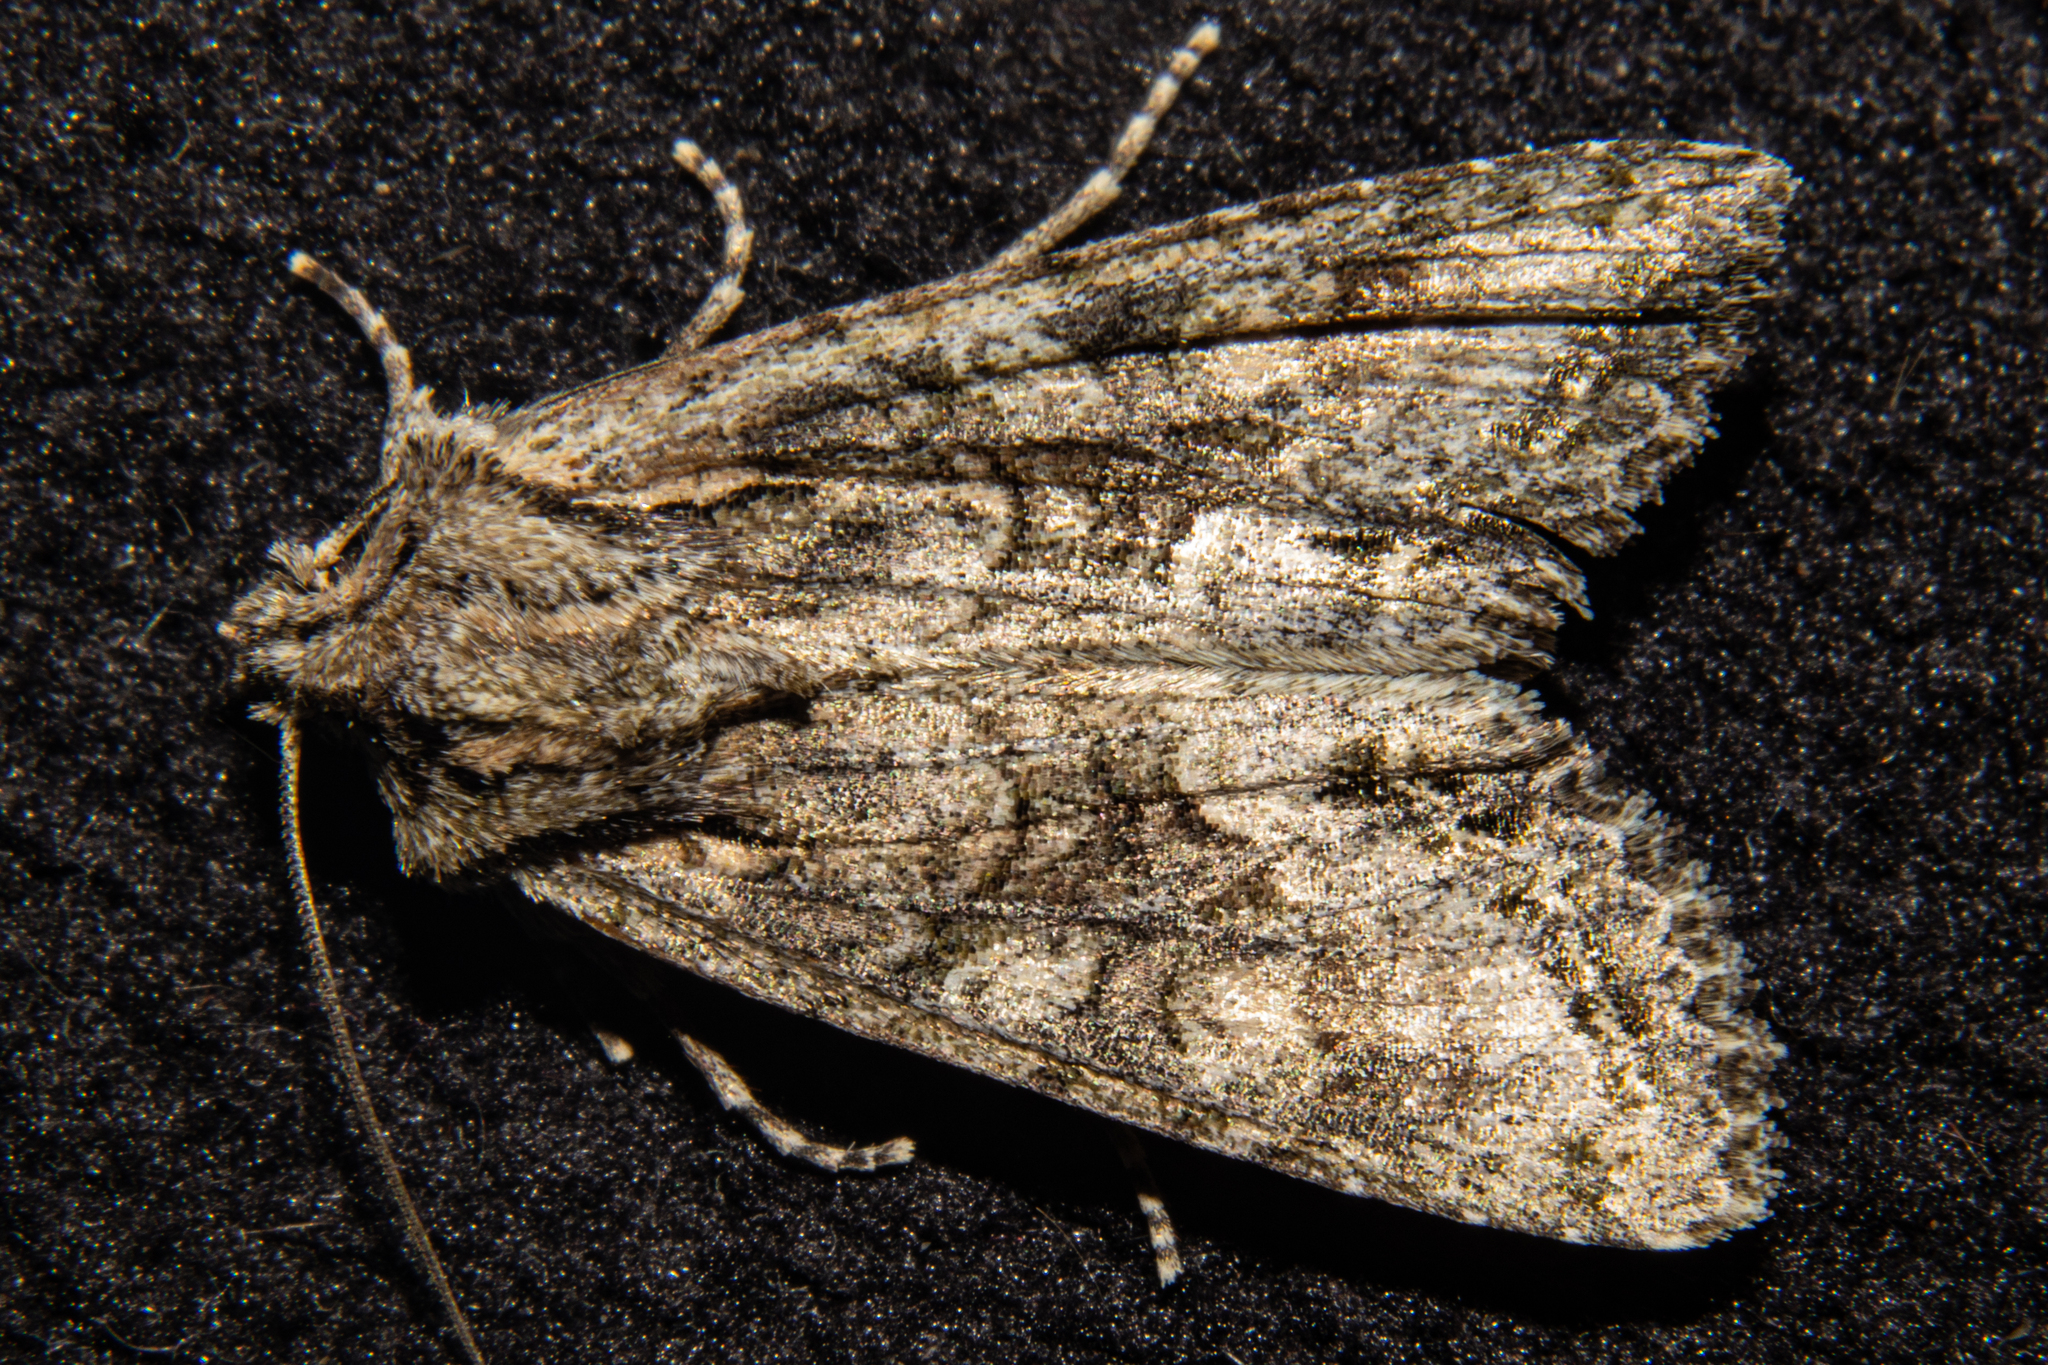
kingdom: Animalia
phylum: Arthropoda
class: Insecta
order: Lepidoptera
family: Noctuidae
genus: Ichneutica
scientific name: Ichneutica mutans
